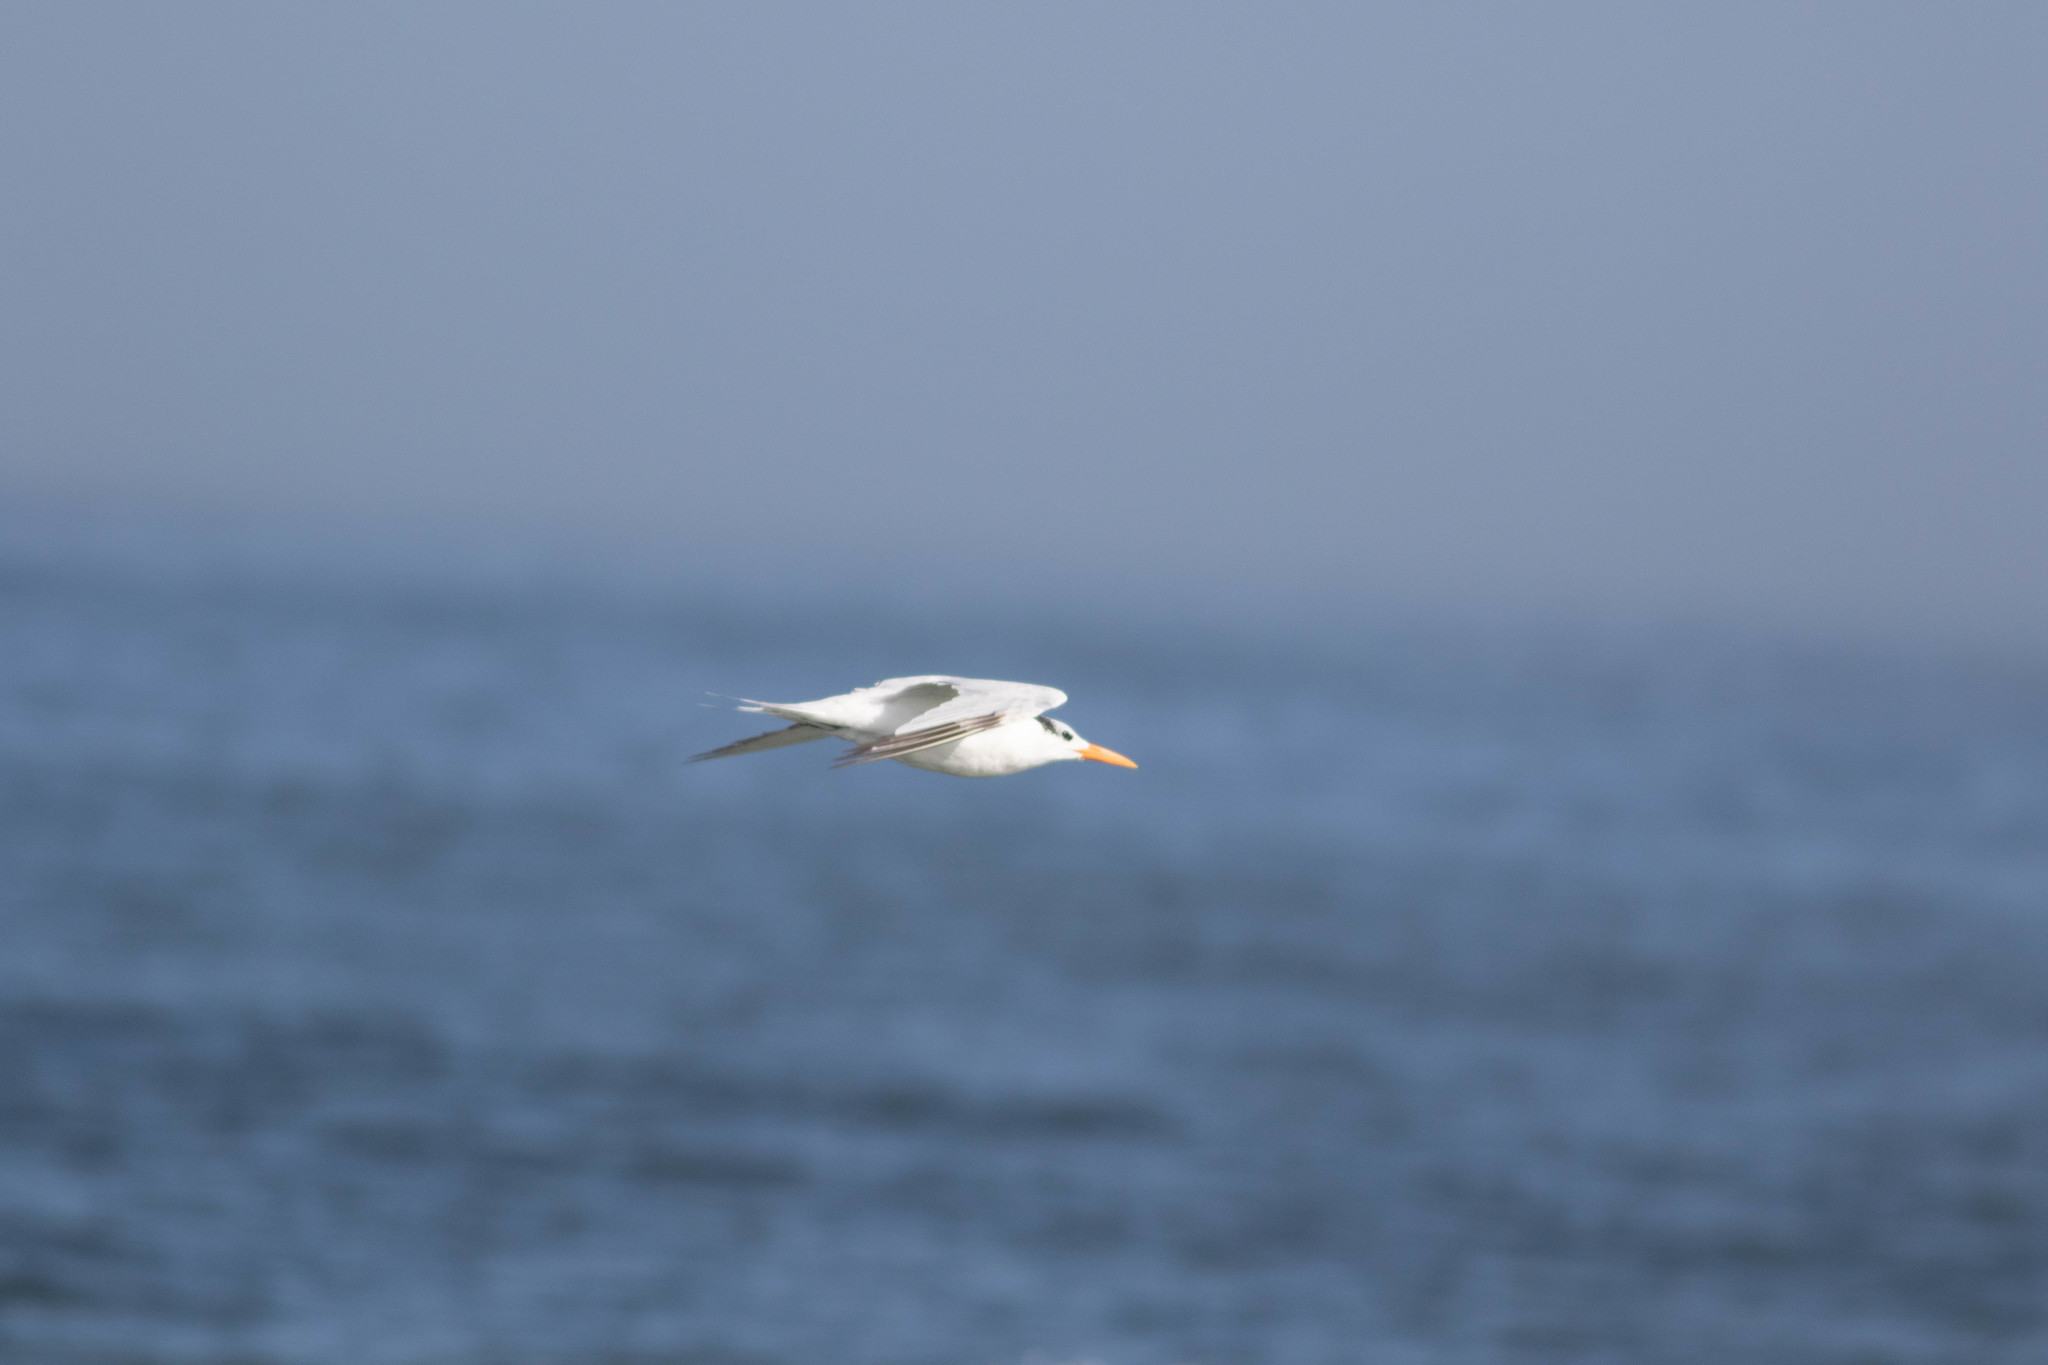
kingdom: Animalia
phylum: Chordata
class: Aves
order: Charadriiformes
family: Laridae
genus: Thalasseus
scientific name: Thalasseus maximus
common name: Royal tern
